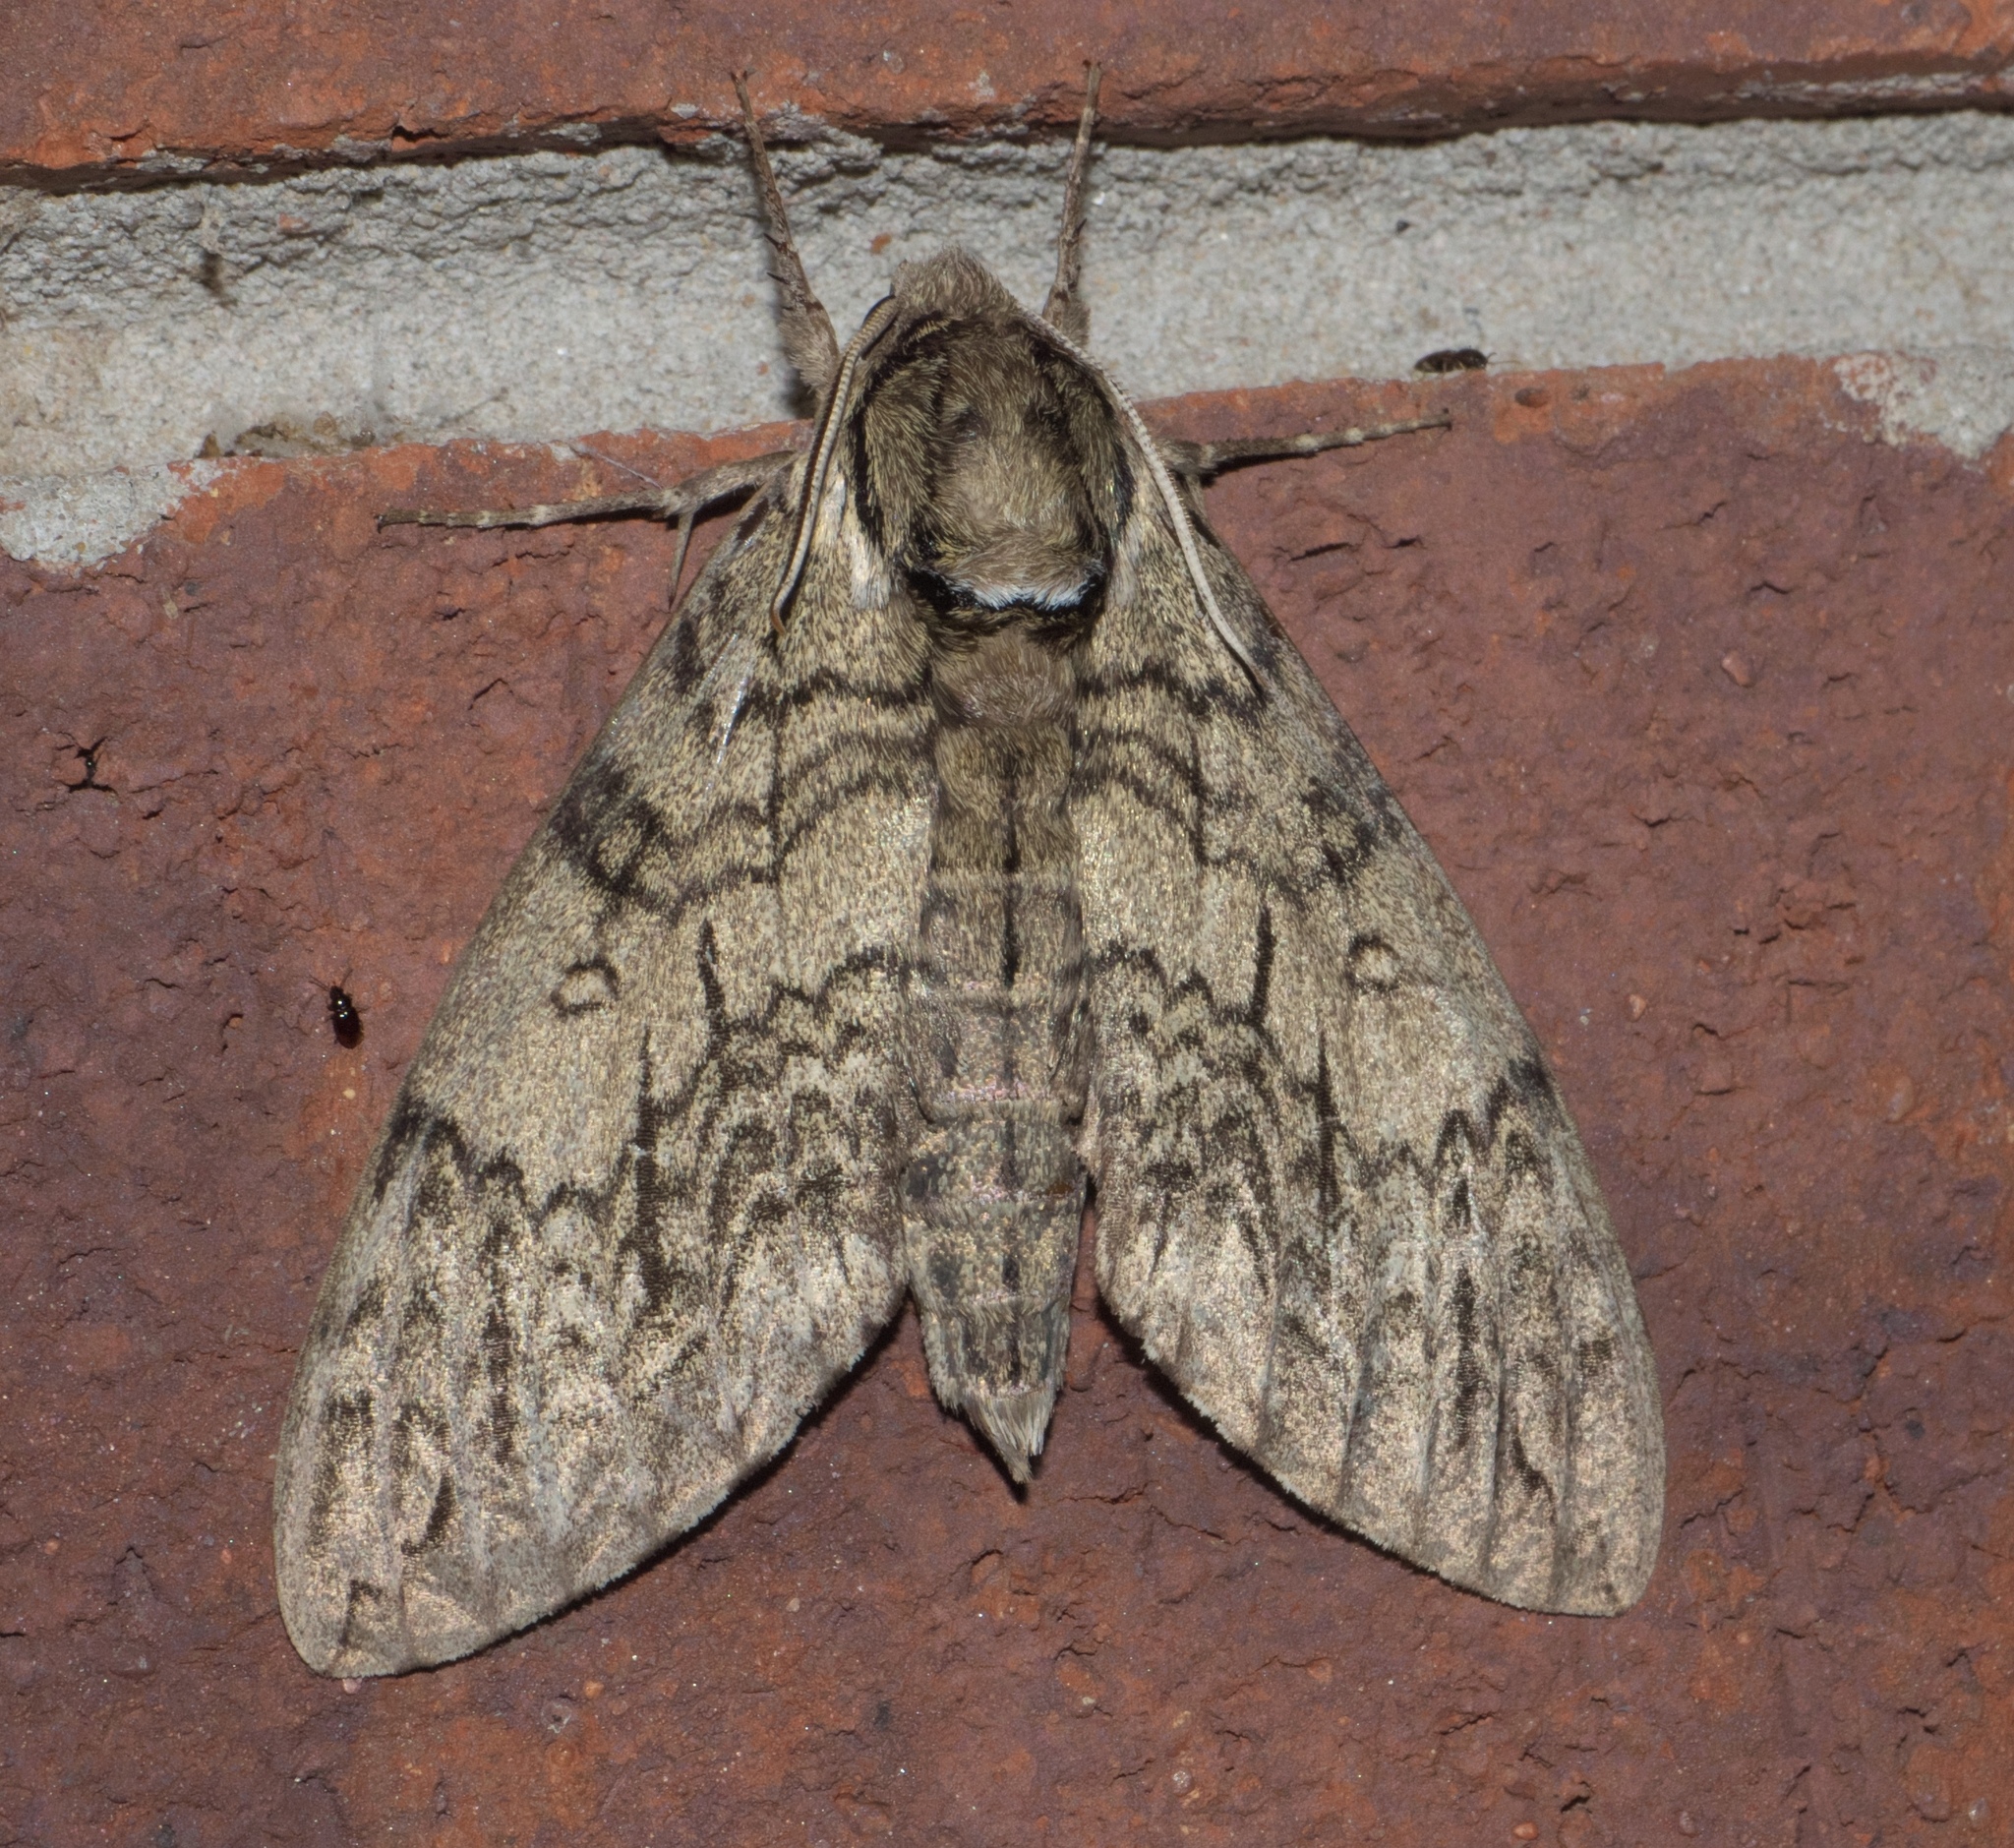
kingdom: Animalia
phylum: Arthropoda
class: Insecta
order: Lepidoptera
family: Sphingidae
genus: Ceratomia
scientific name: Ceratomia undulosa
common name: Waved sphinx
